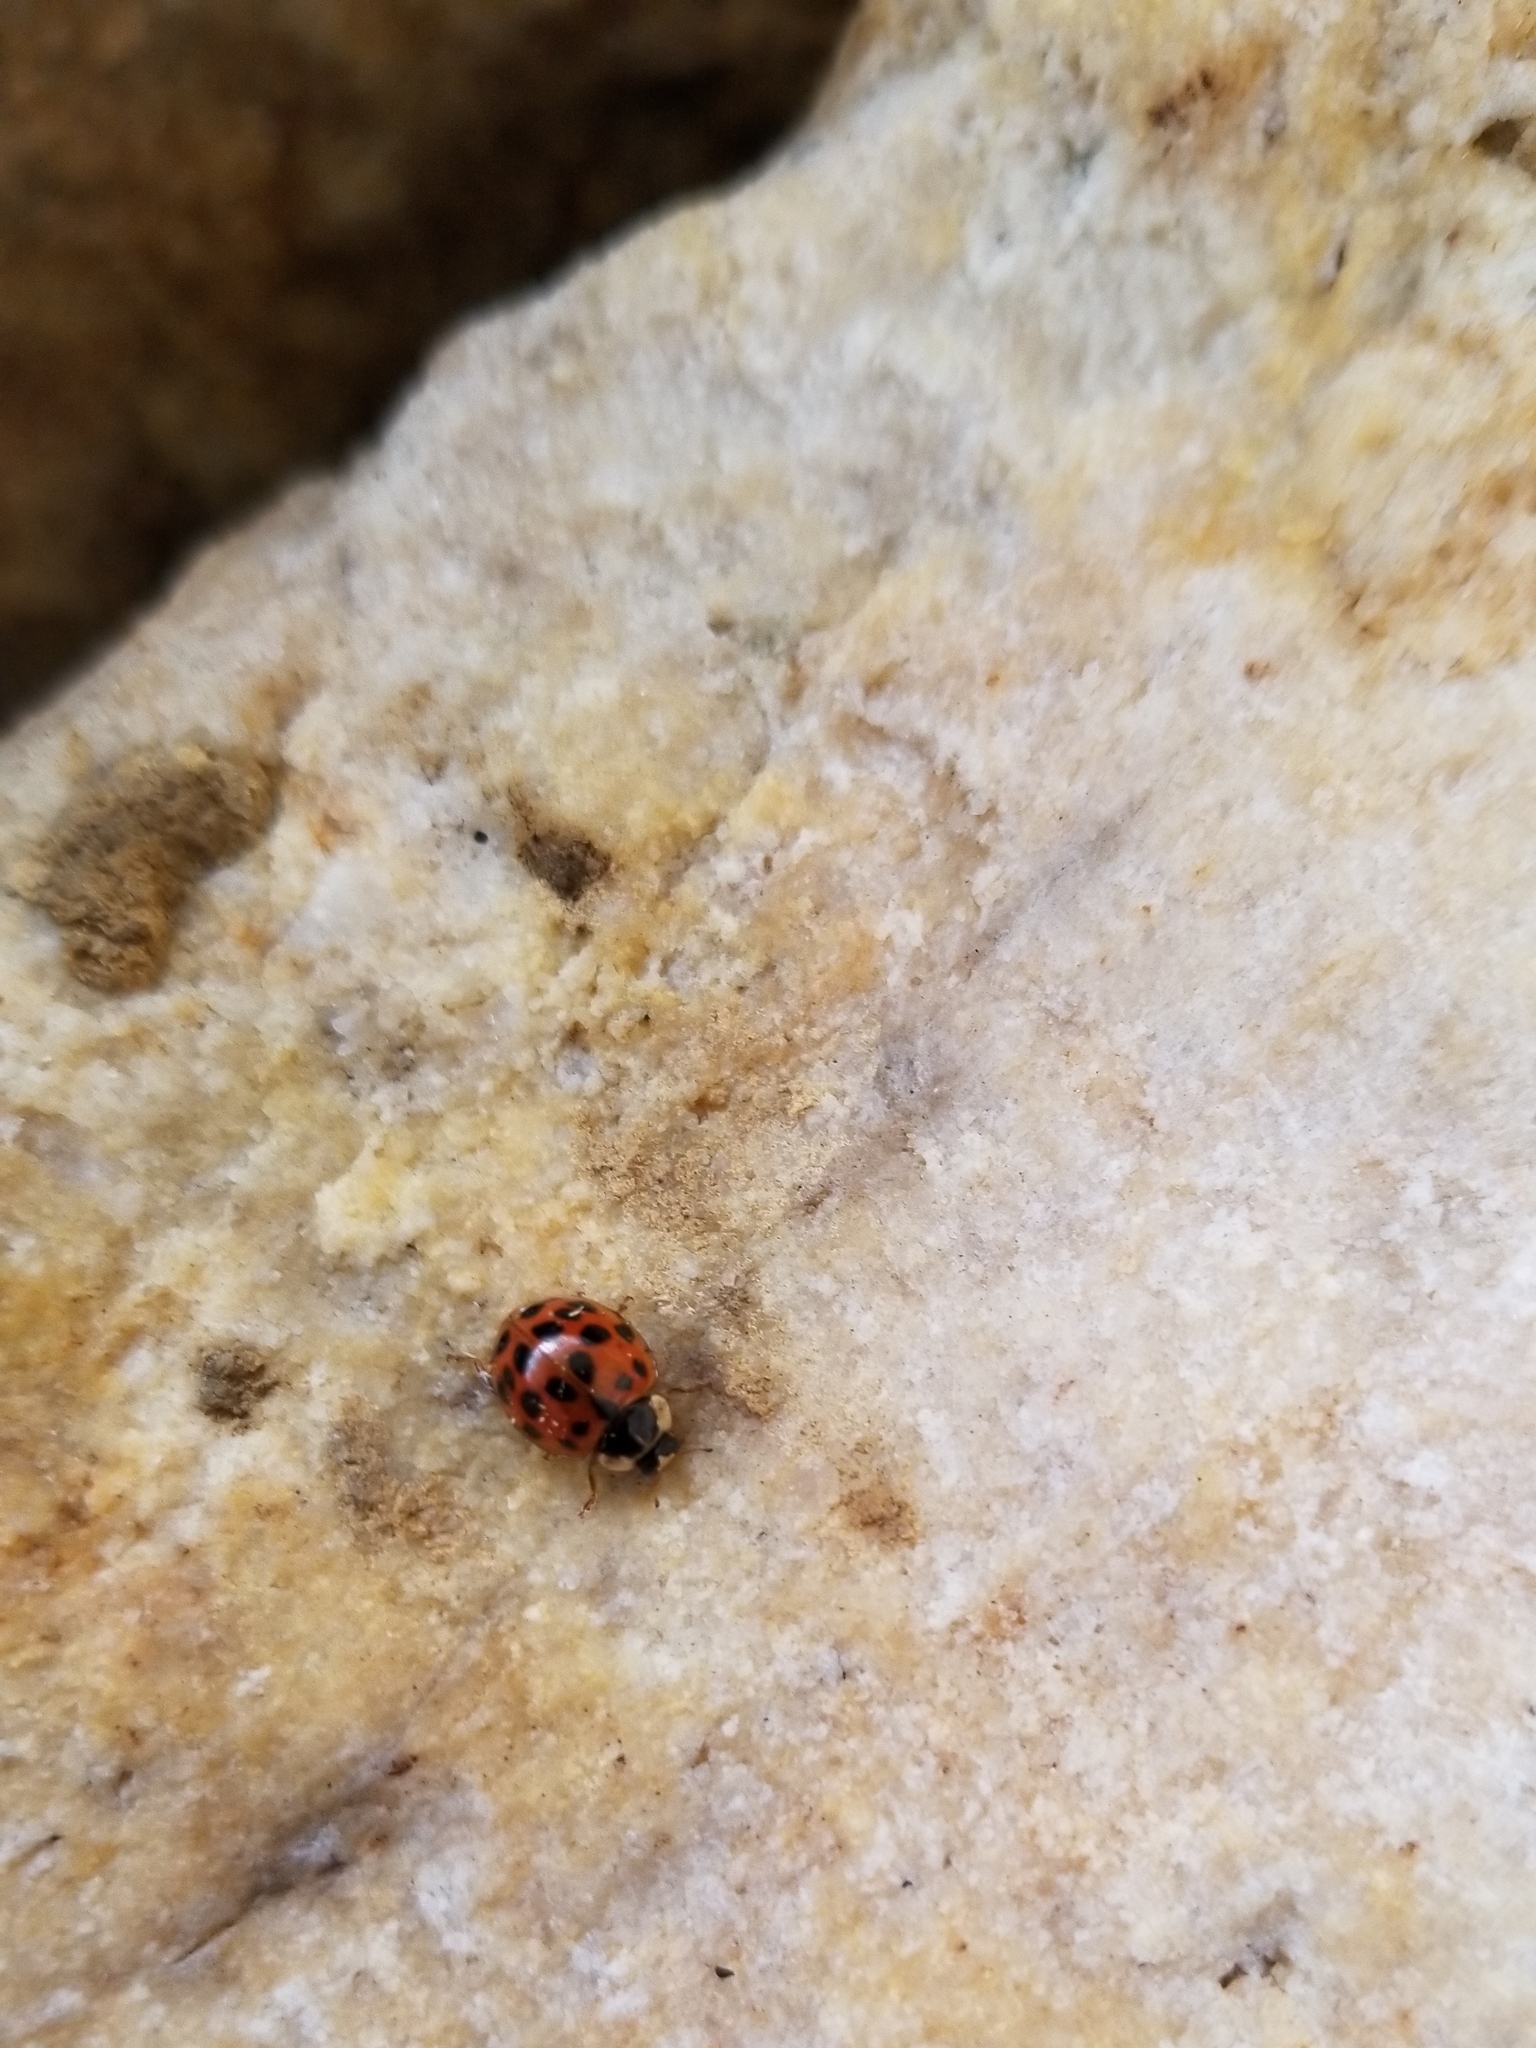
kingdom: Animalia
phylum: Arthropoda
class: Insecta
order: Coleoptera
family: Coccinellidae
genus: Harmonia
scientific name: Harmonia axyridis
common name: Harlequin ladybird
